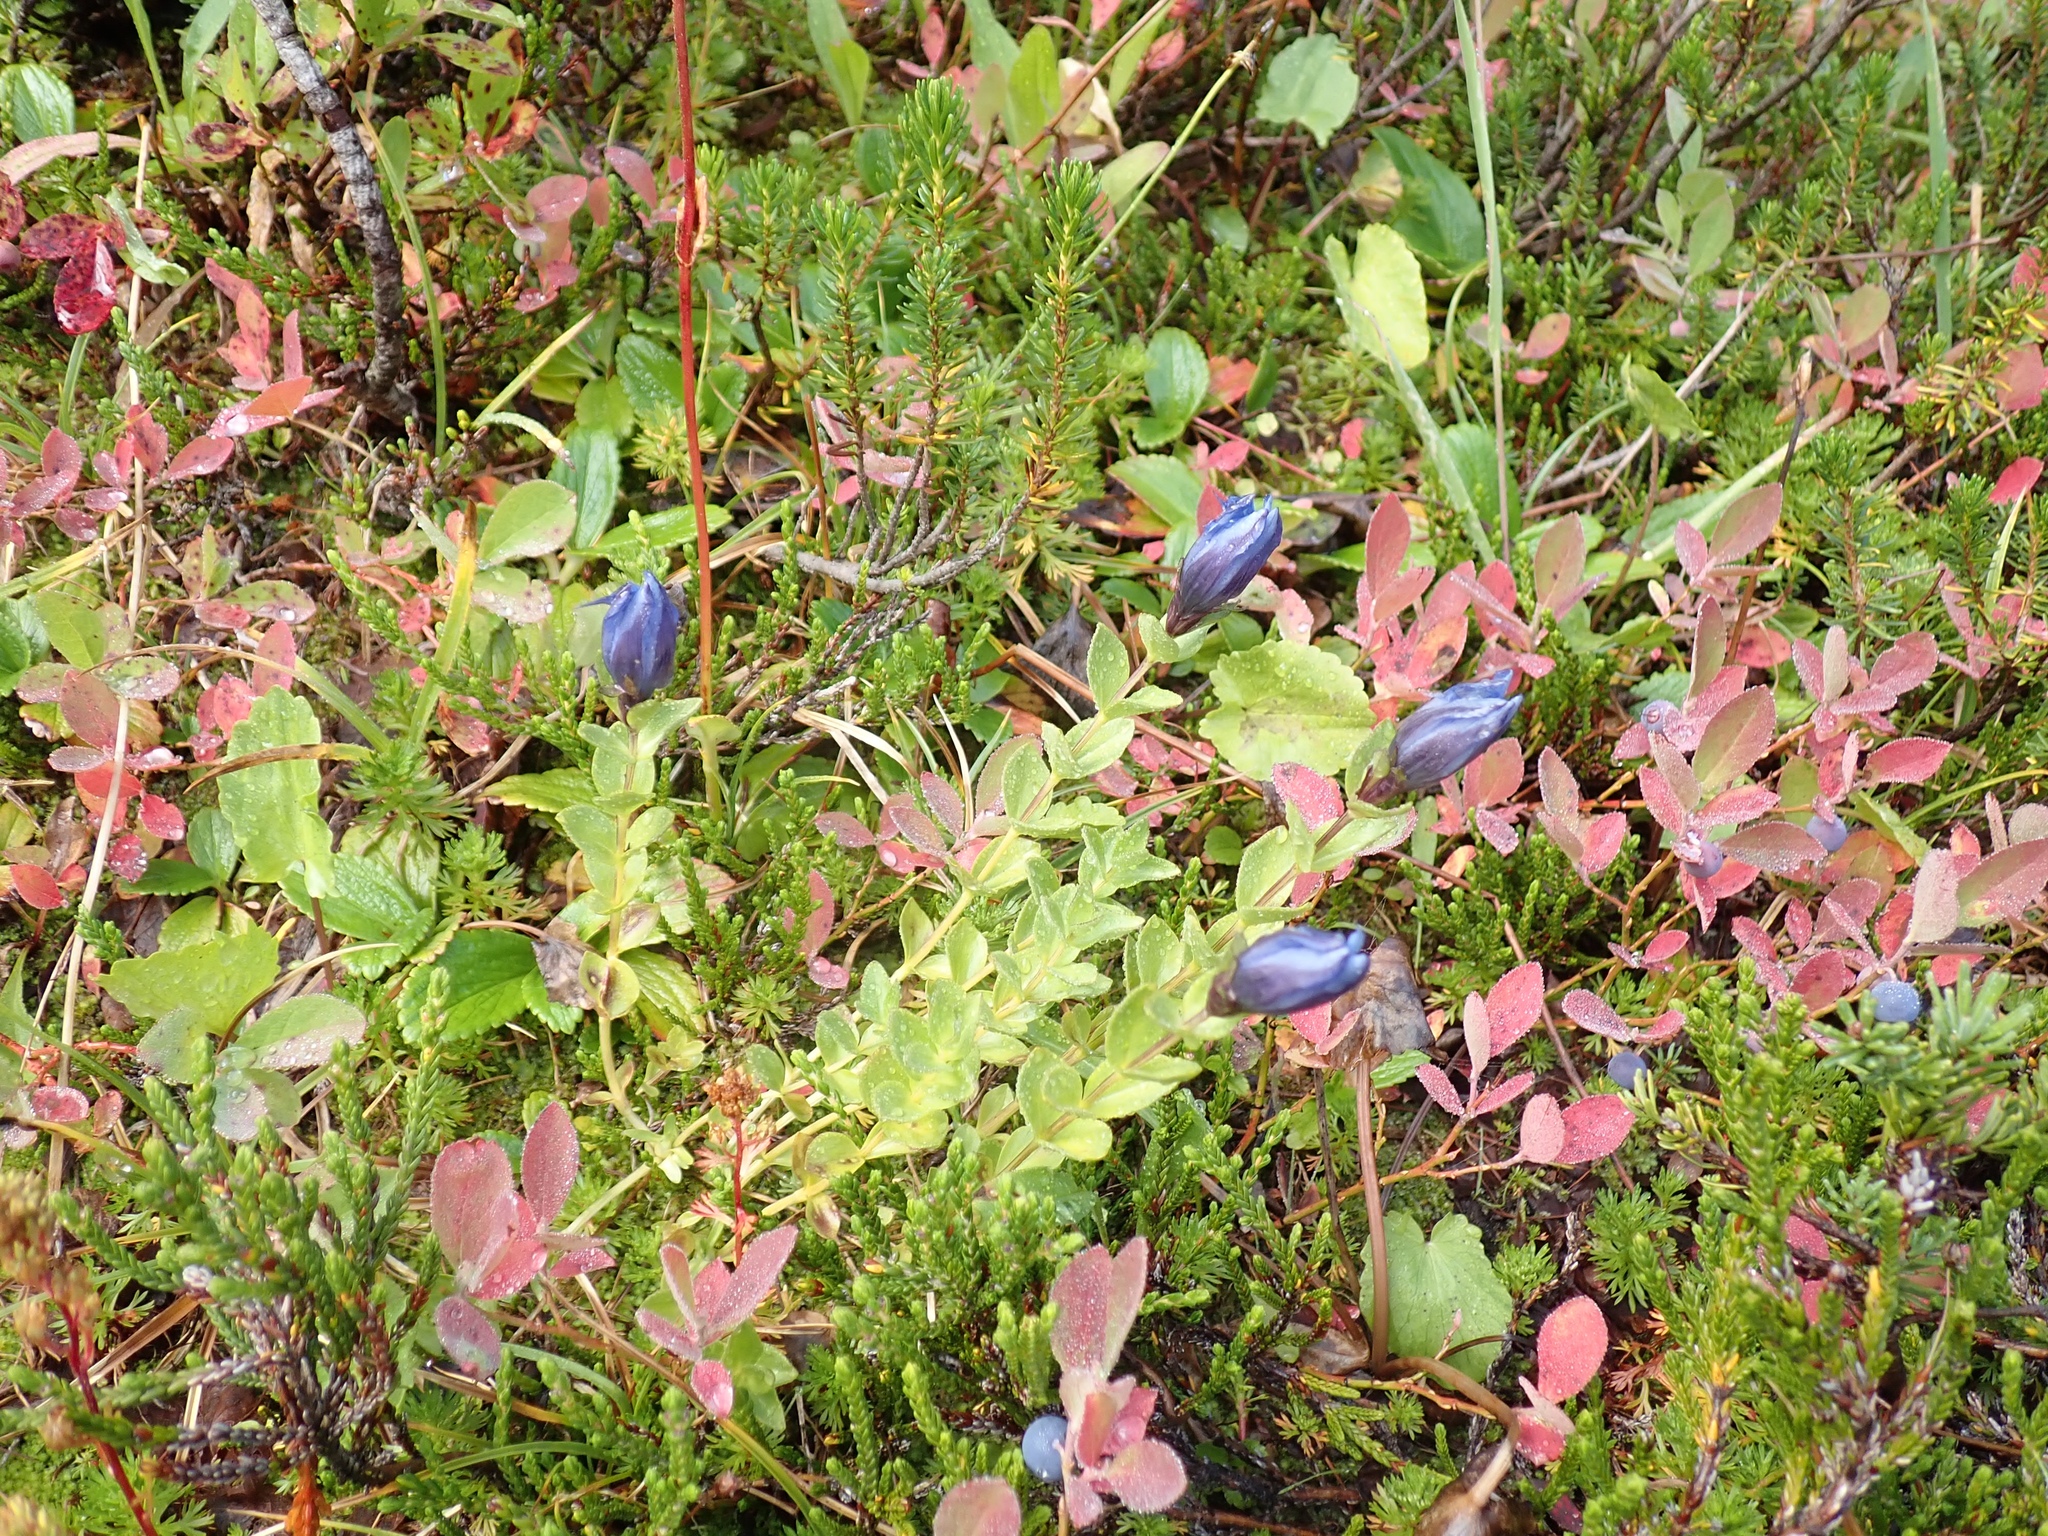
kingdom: Plantae
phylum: Tracheophyta
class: Magnoliopsida
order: Gentianales
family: Gentianaceae
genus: Gentiana
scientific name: Gentiana calycosa
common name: Rainier pleated gentian
